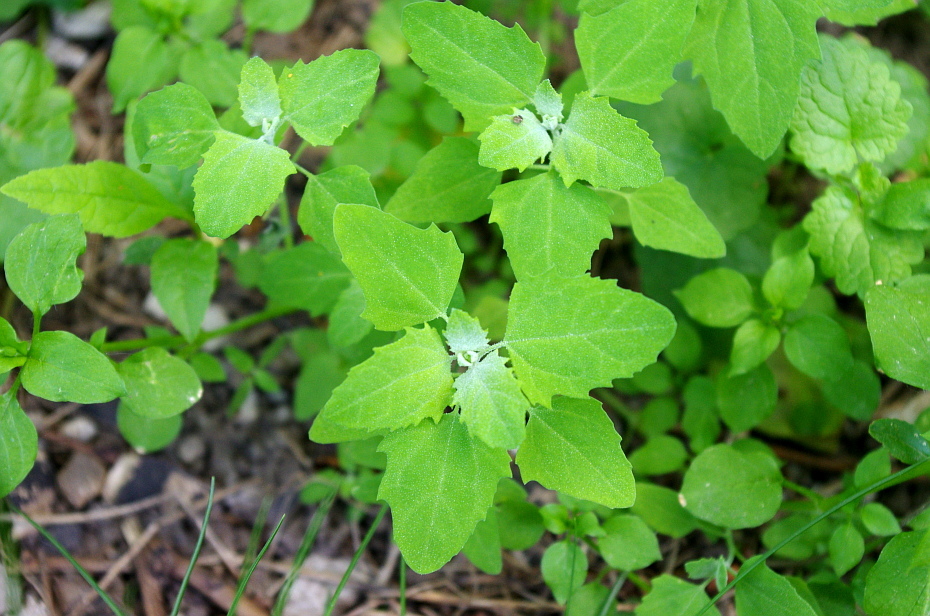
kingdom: Plantae
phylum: Tracheophyta
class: Magnoliopsida
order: Caryophyllales
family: Amaranthaceae
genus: Chenopodium
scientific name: Chenopodium album
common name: Fat-hen
